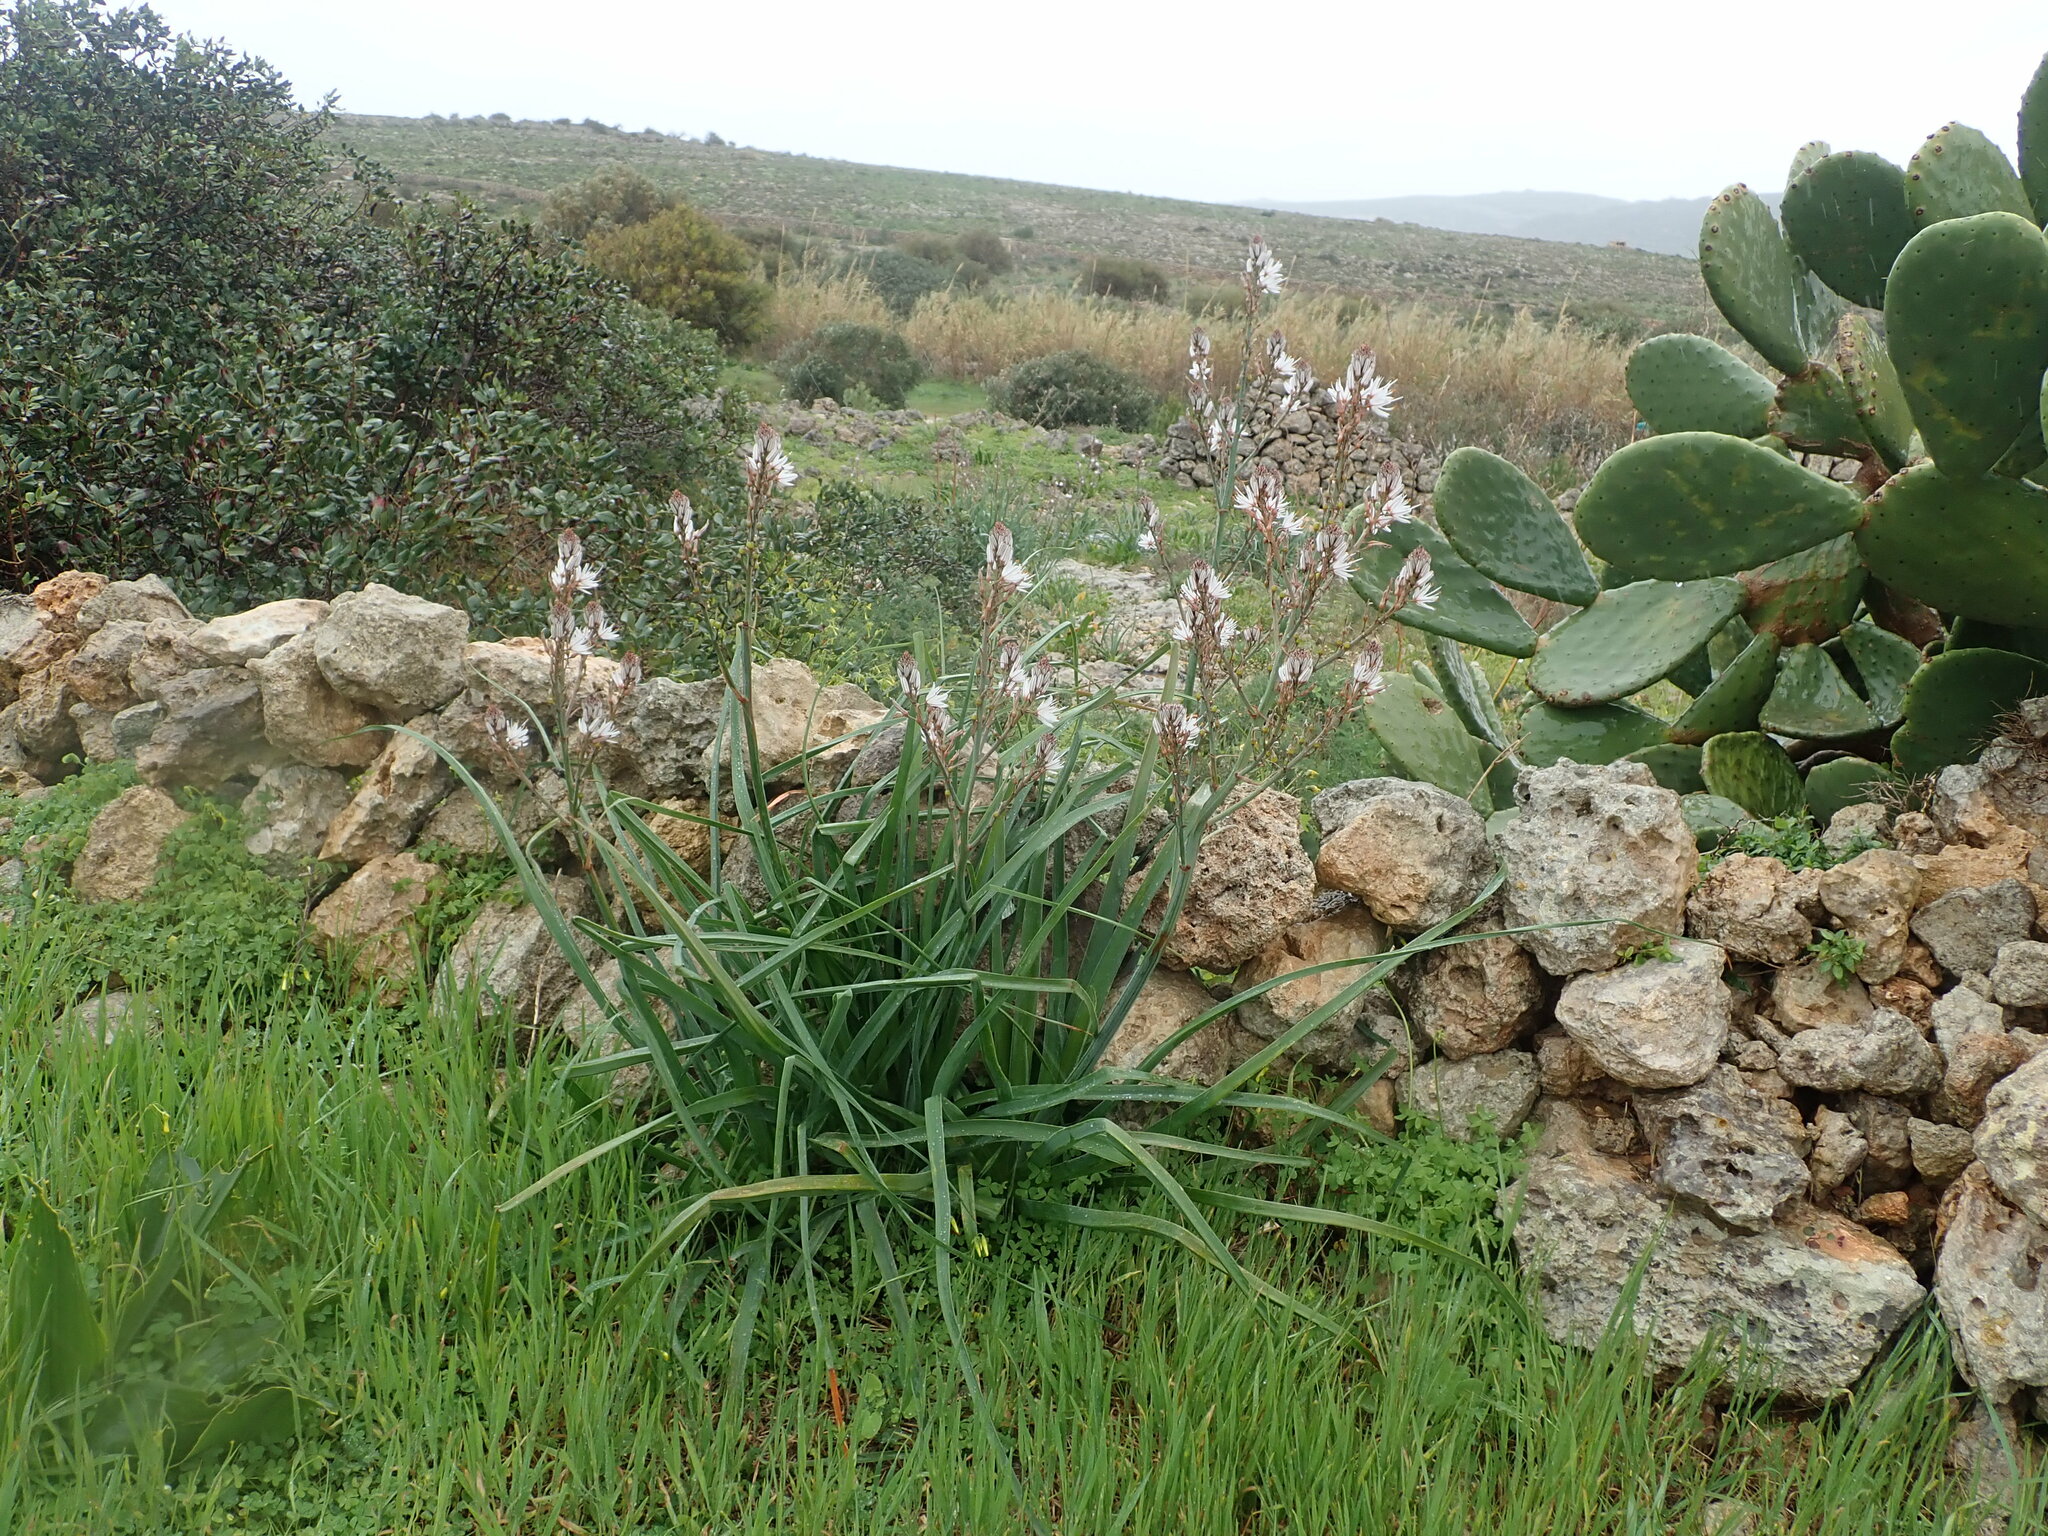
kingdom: Plantae
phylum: Tracheophyta
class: Liliopsida
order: Asparagales
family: Asphodelaceae
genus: Asphodelus
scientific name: Asphodelus ramosus
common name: Silverrod
